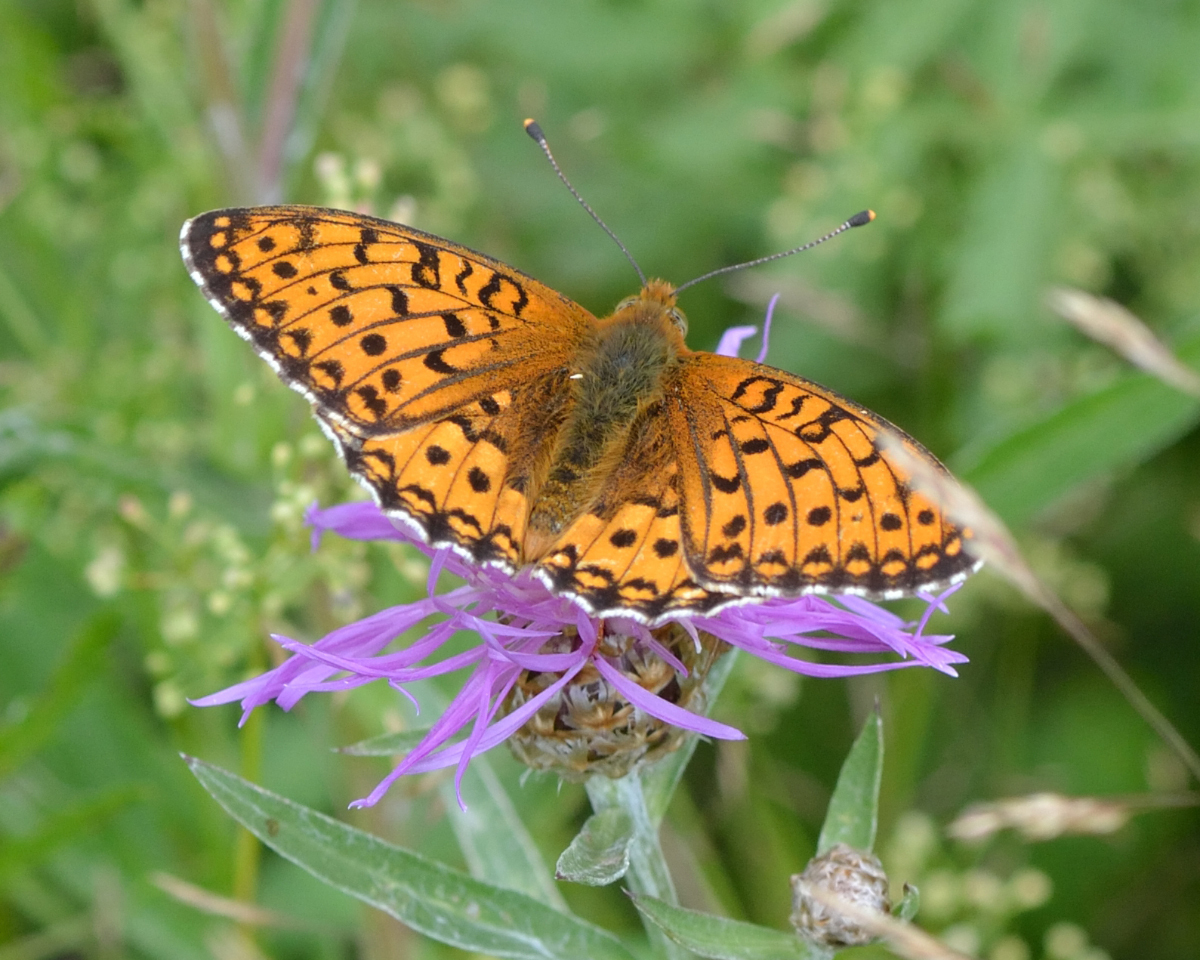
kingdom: Animalia
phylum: Arthropoda
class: Insecta
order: Lepidoptera
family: Nymphalidae
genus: Speyeria
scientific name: Speyeria aglaja
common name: Dark green fritillary
